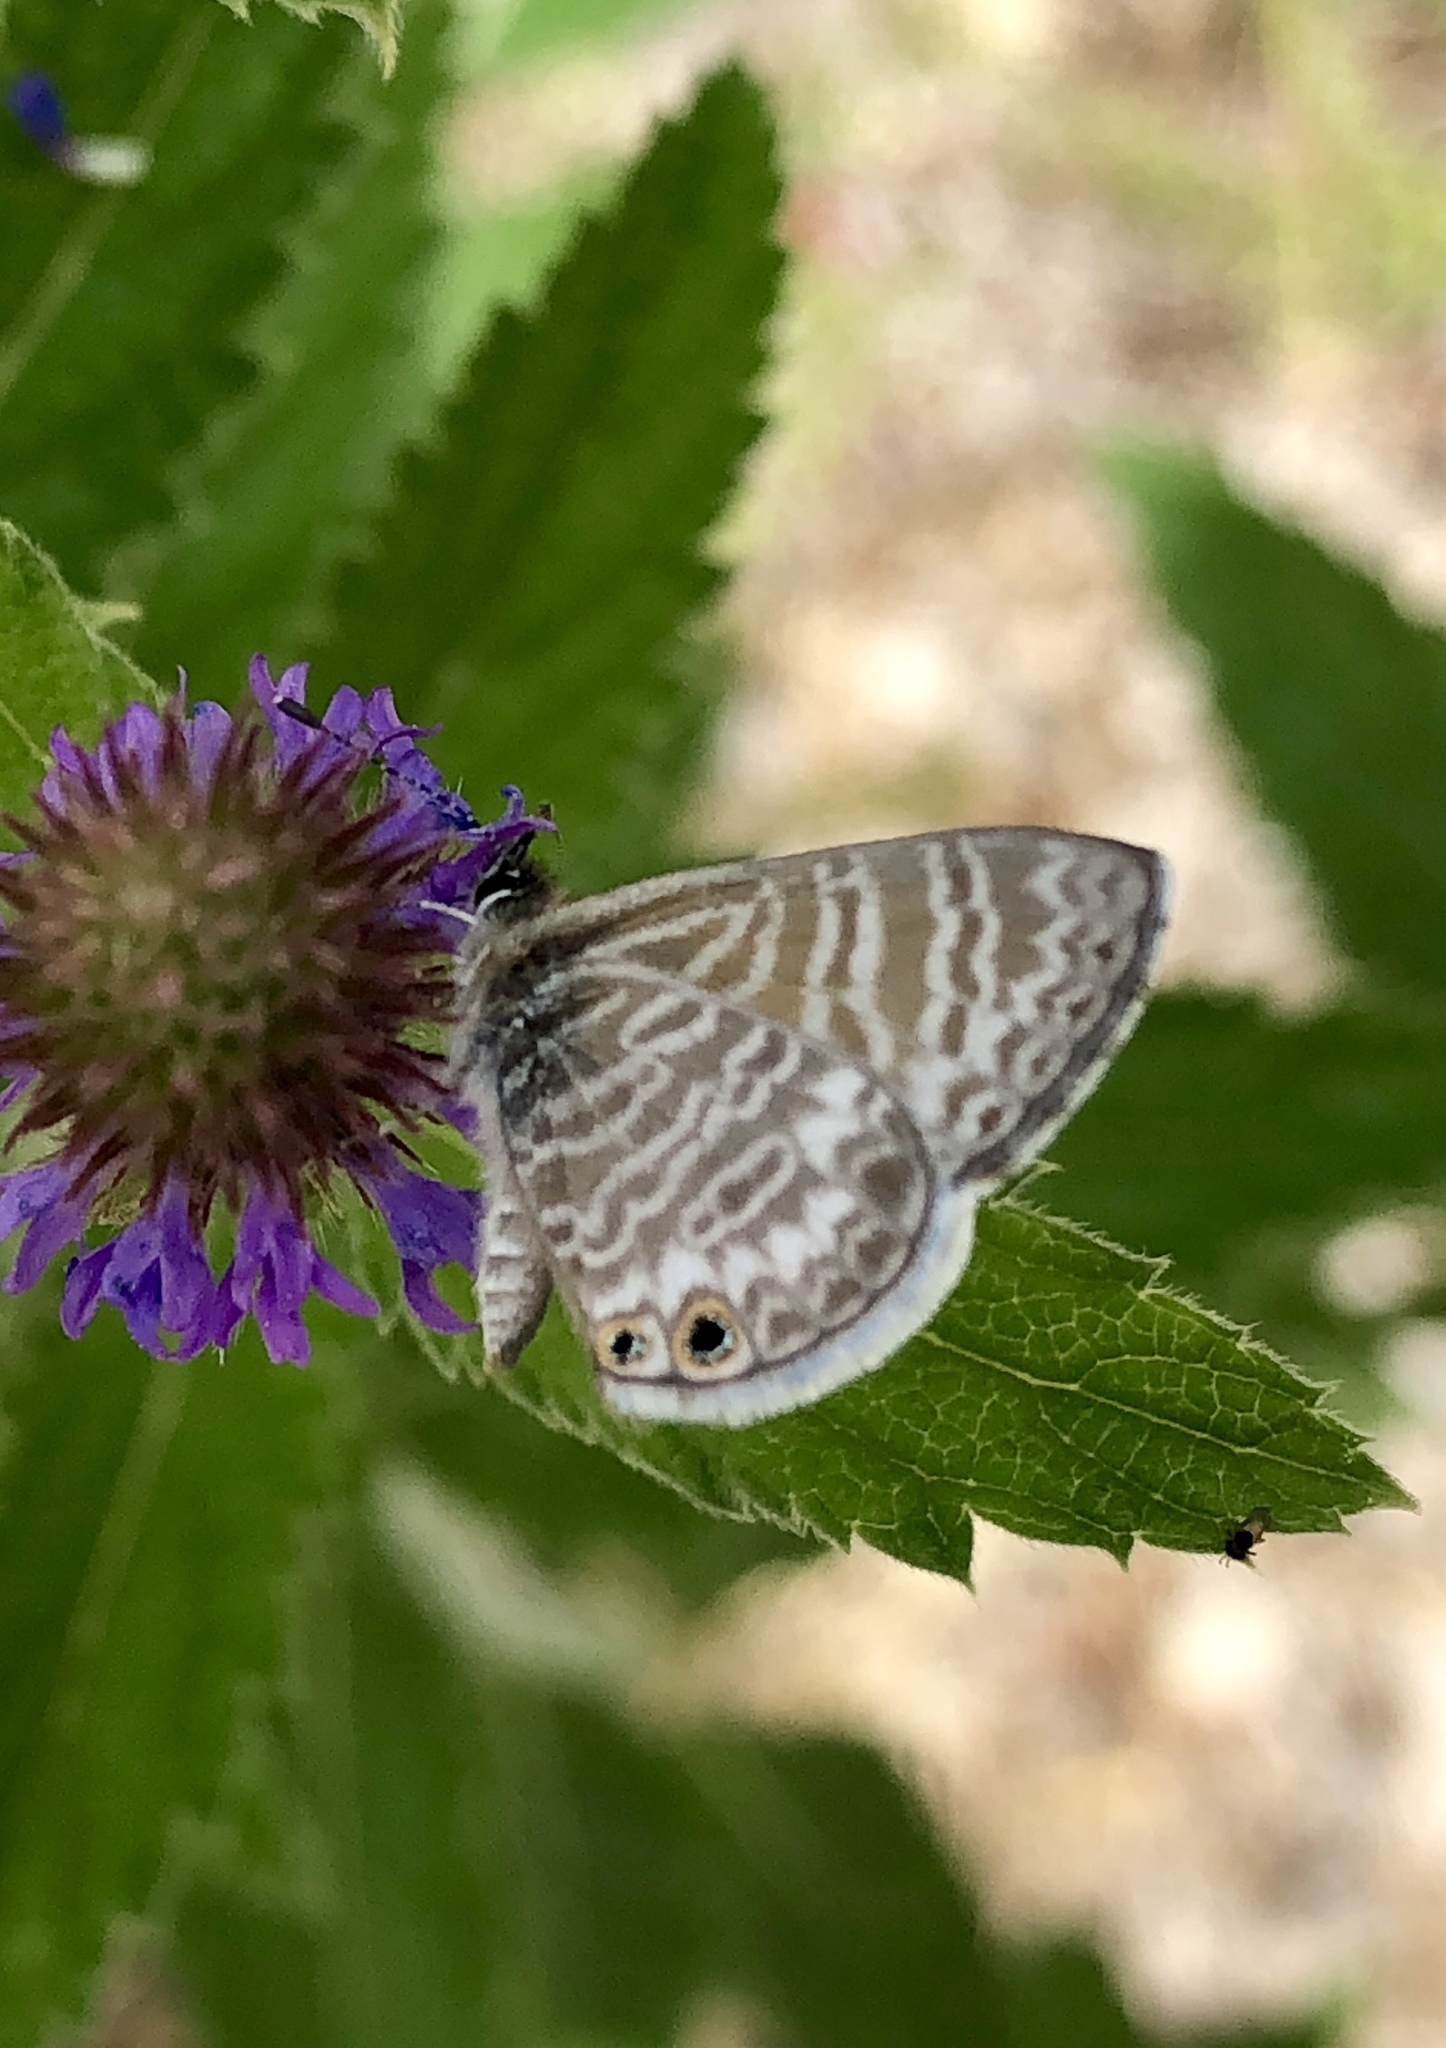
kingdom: Animalia
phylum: Arthropoda
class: Insecta
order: Lepidoptera
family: Lycaenidae
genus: Leptotes
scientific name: Leptotes marina
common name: Marine blue
